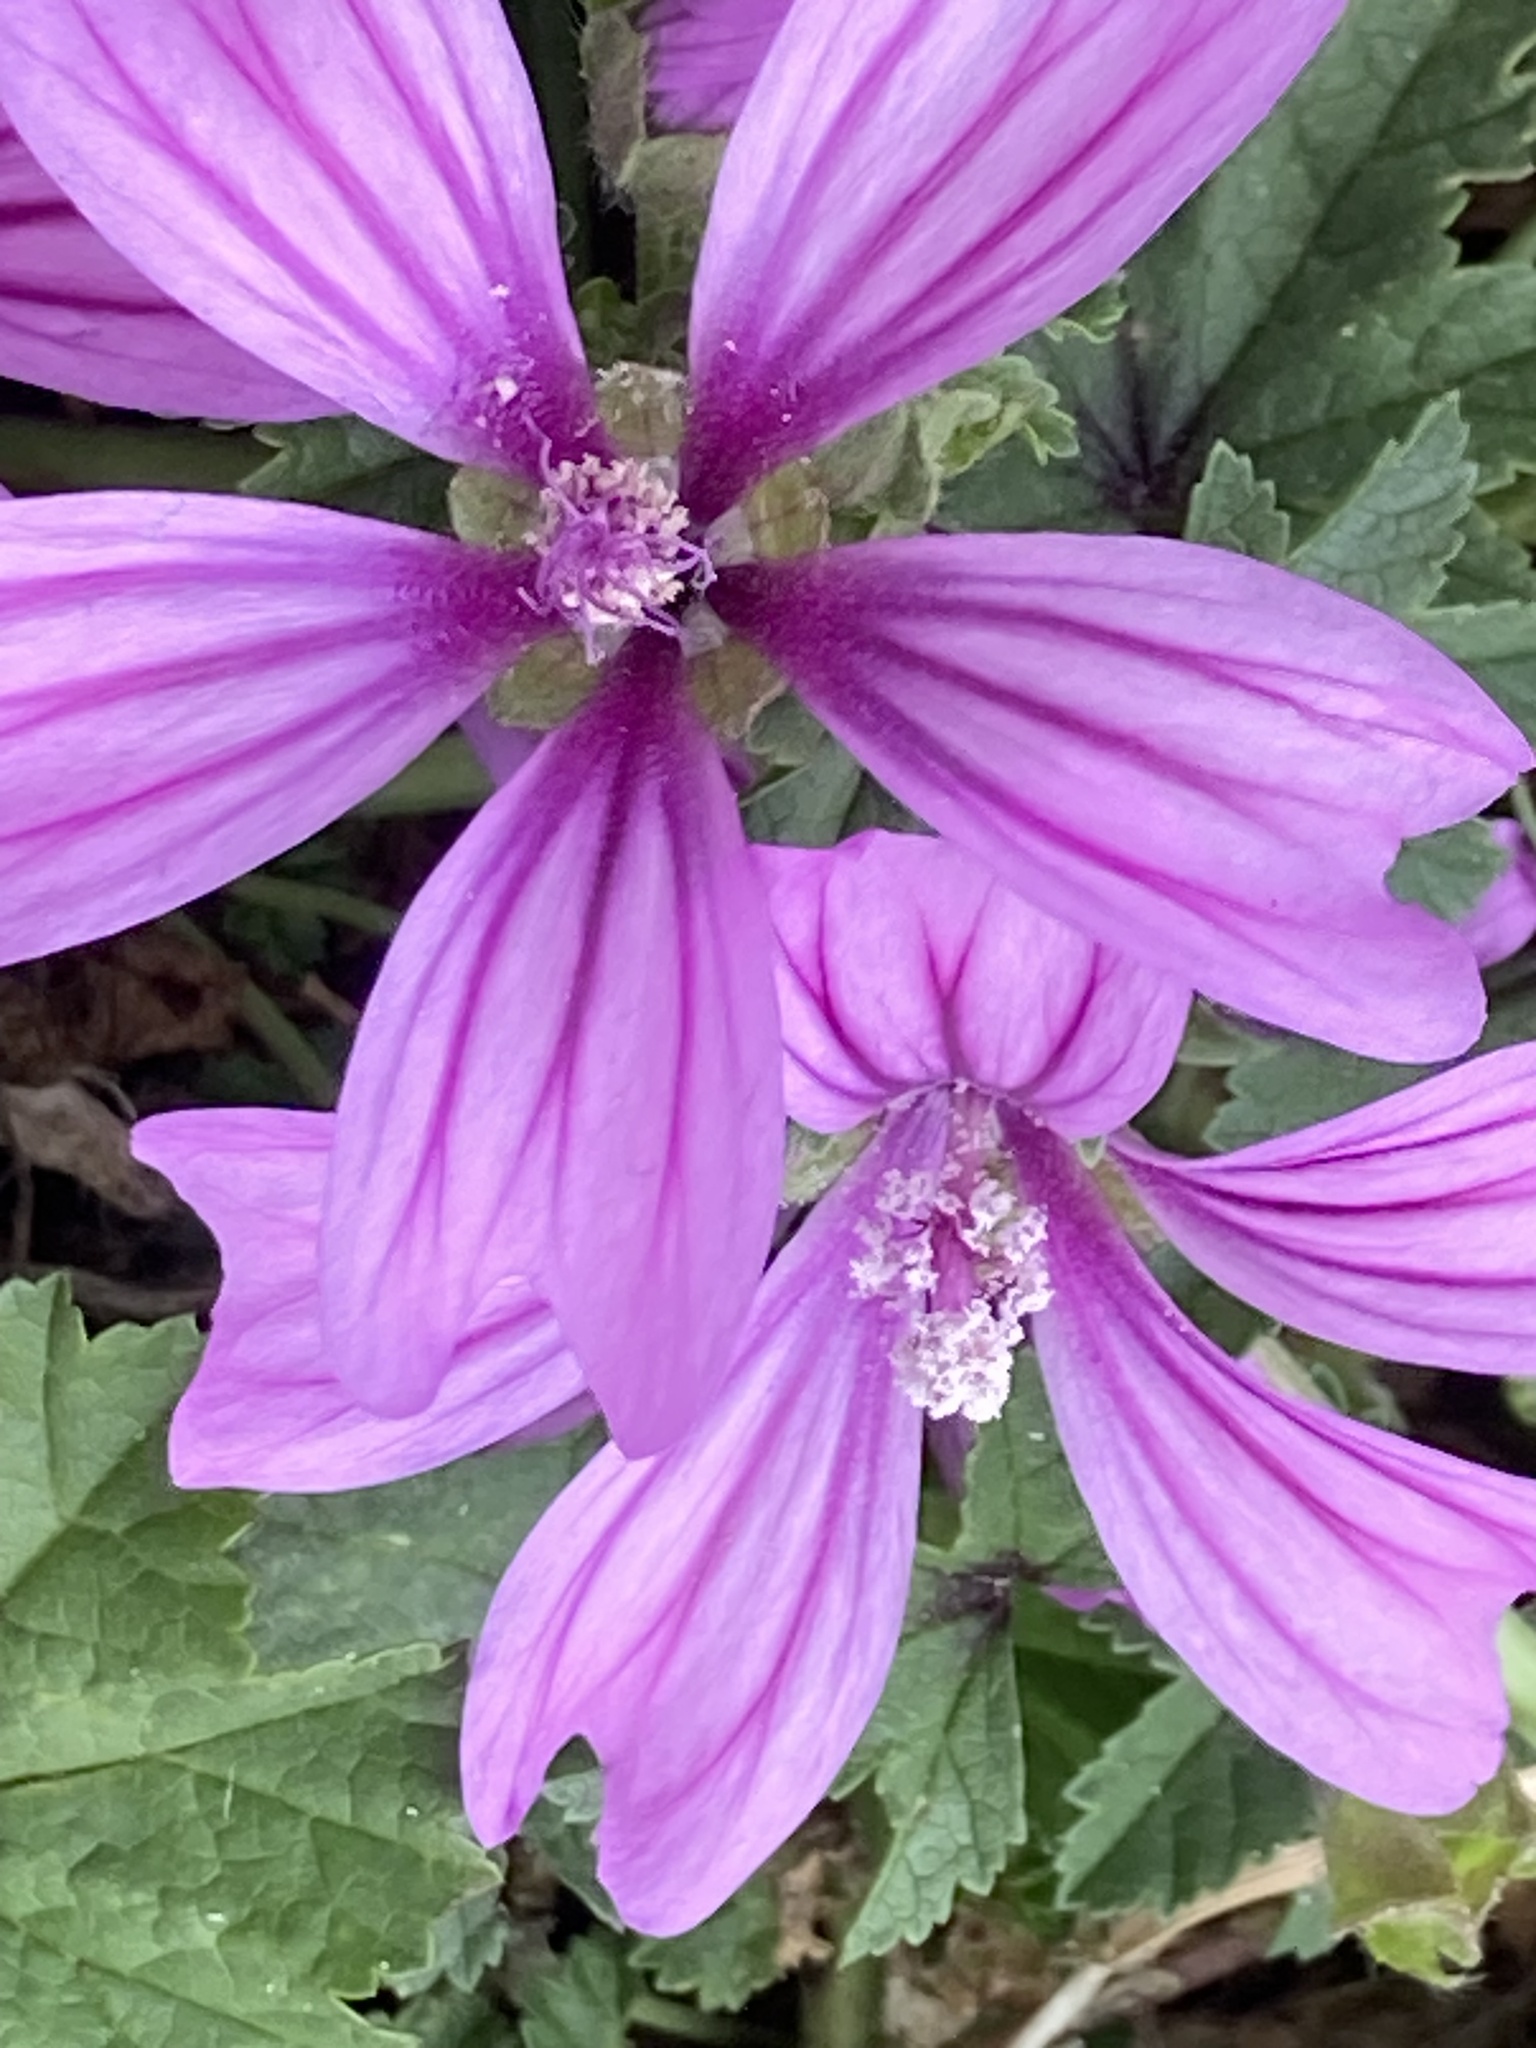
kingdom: Plantae
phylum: Tracheophyta
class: Magnoliopsida
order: Malvales
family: Malvaceae
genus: Malva
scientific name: Malva sylvestris
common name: Common mallow
